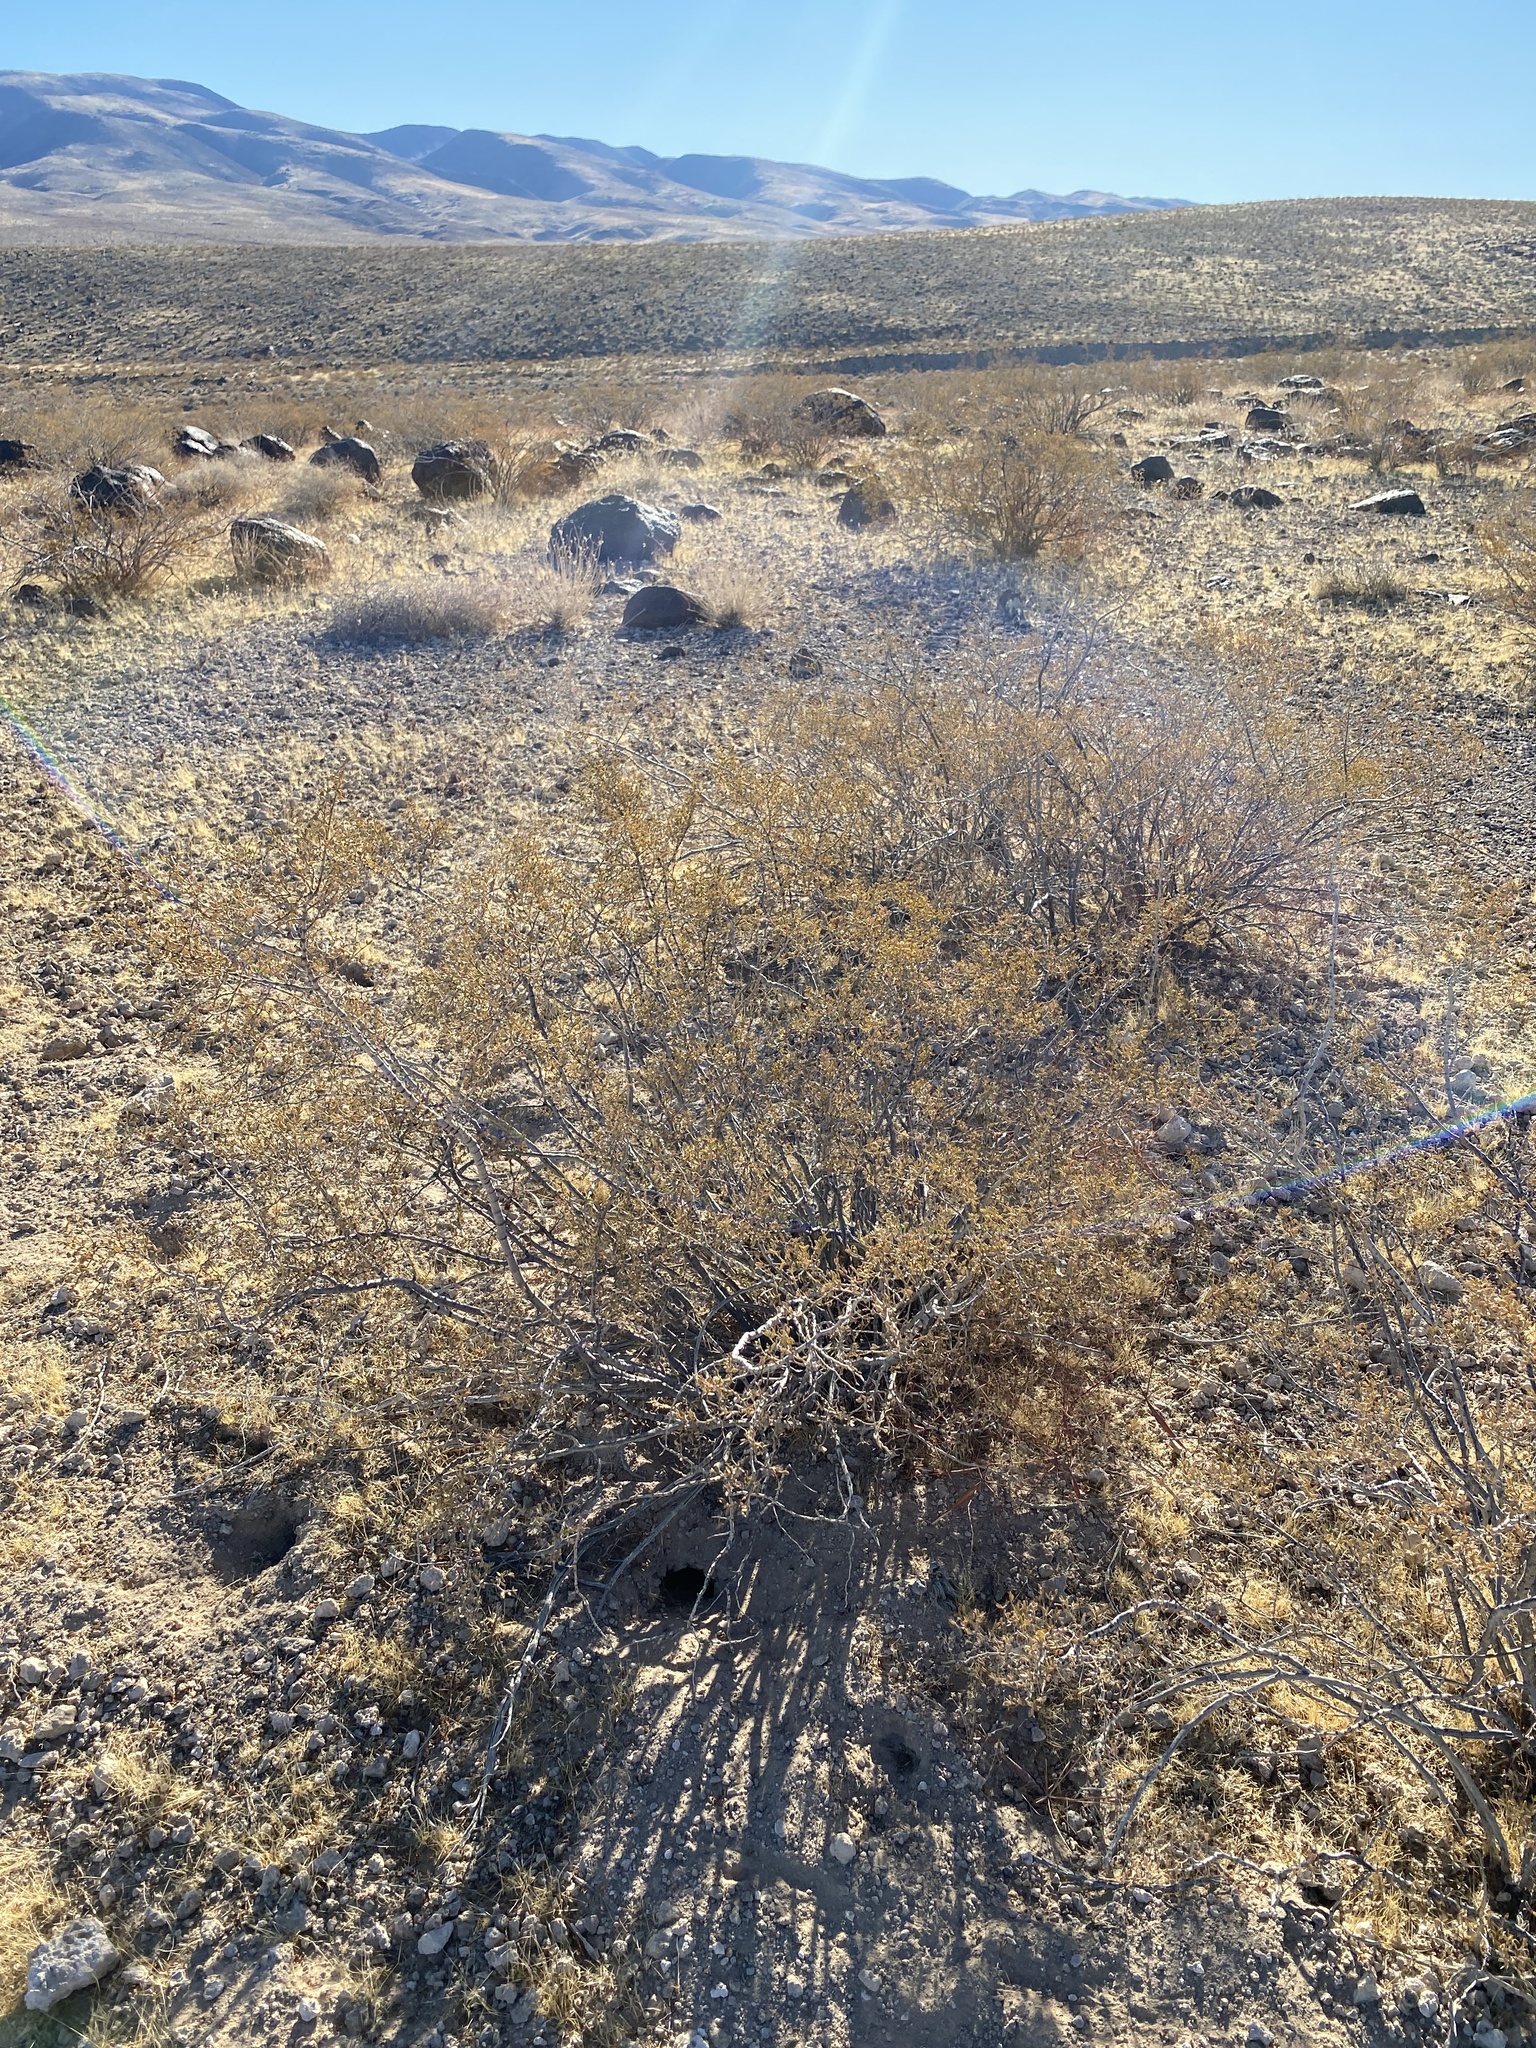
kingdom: Plantae
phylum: Tracheophyta
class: Magnoliopsida
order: Zygophyllales
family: Zygophyllaceae
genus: Larrea
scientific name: Larrea tridentata
